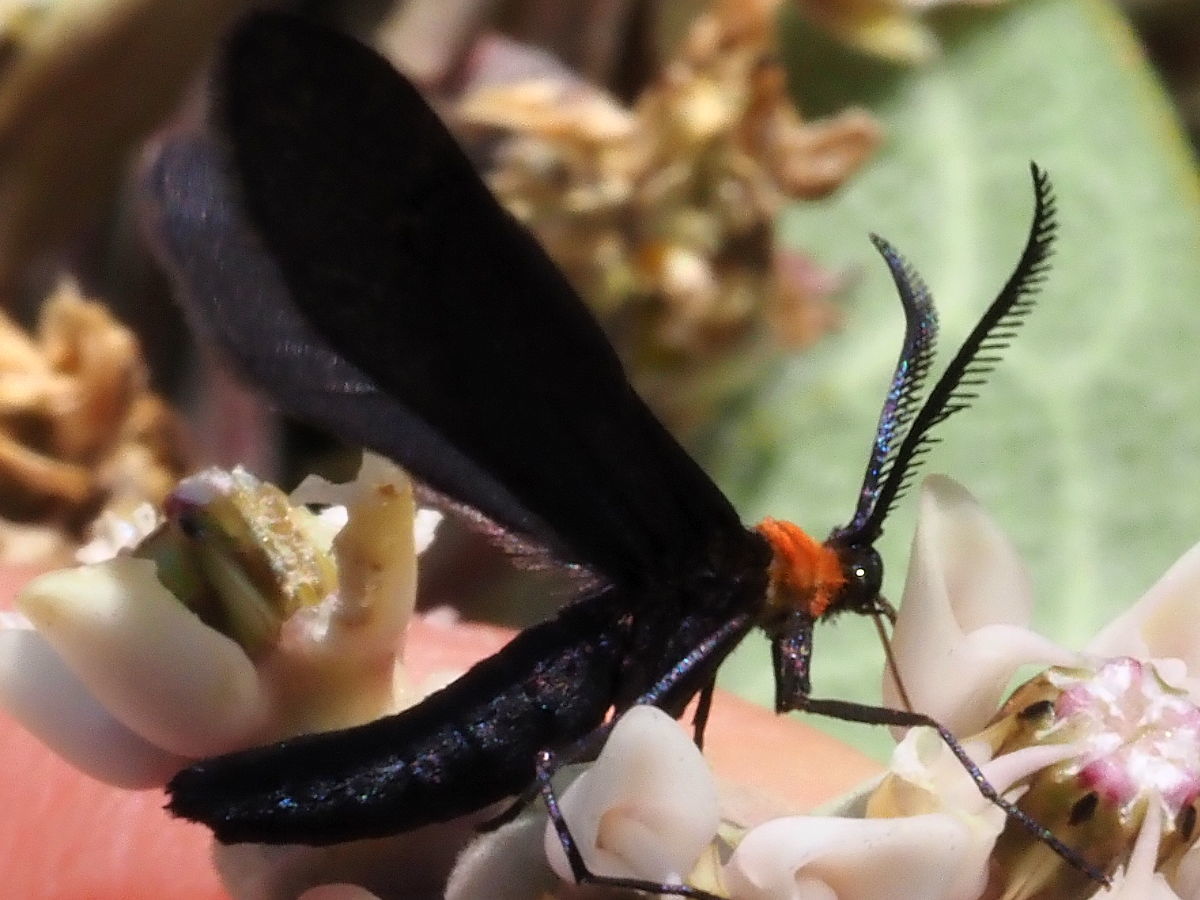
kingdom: Animalia
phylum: Arthropoda
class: Insecta
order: Lepidoptera
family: Zygaenidae
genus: Harrisina
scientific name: Harrisina americana
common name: Grapeleaf skeletonizer moth
